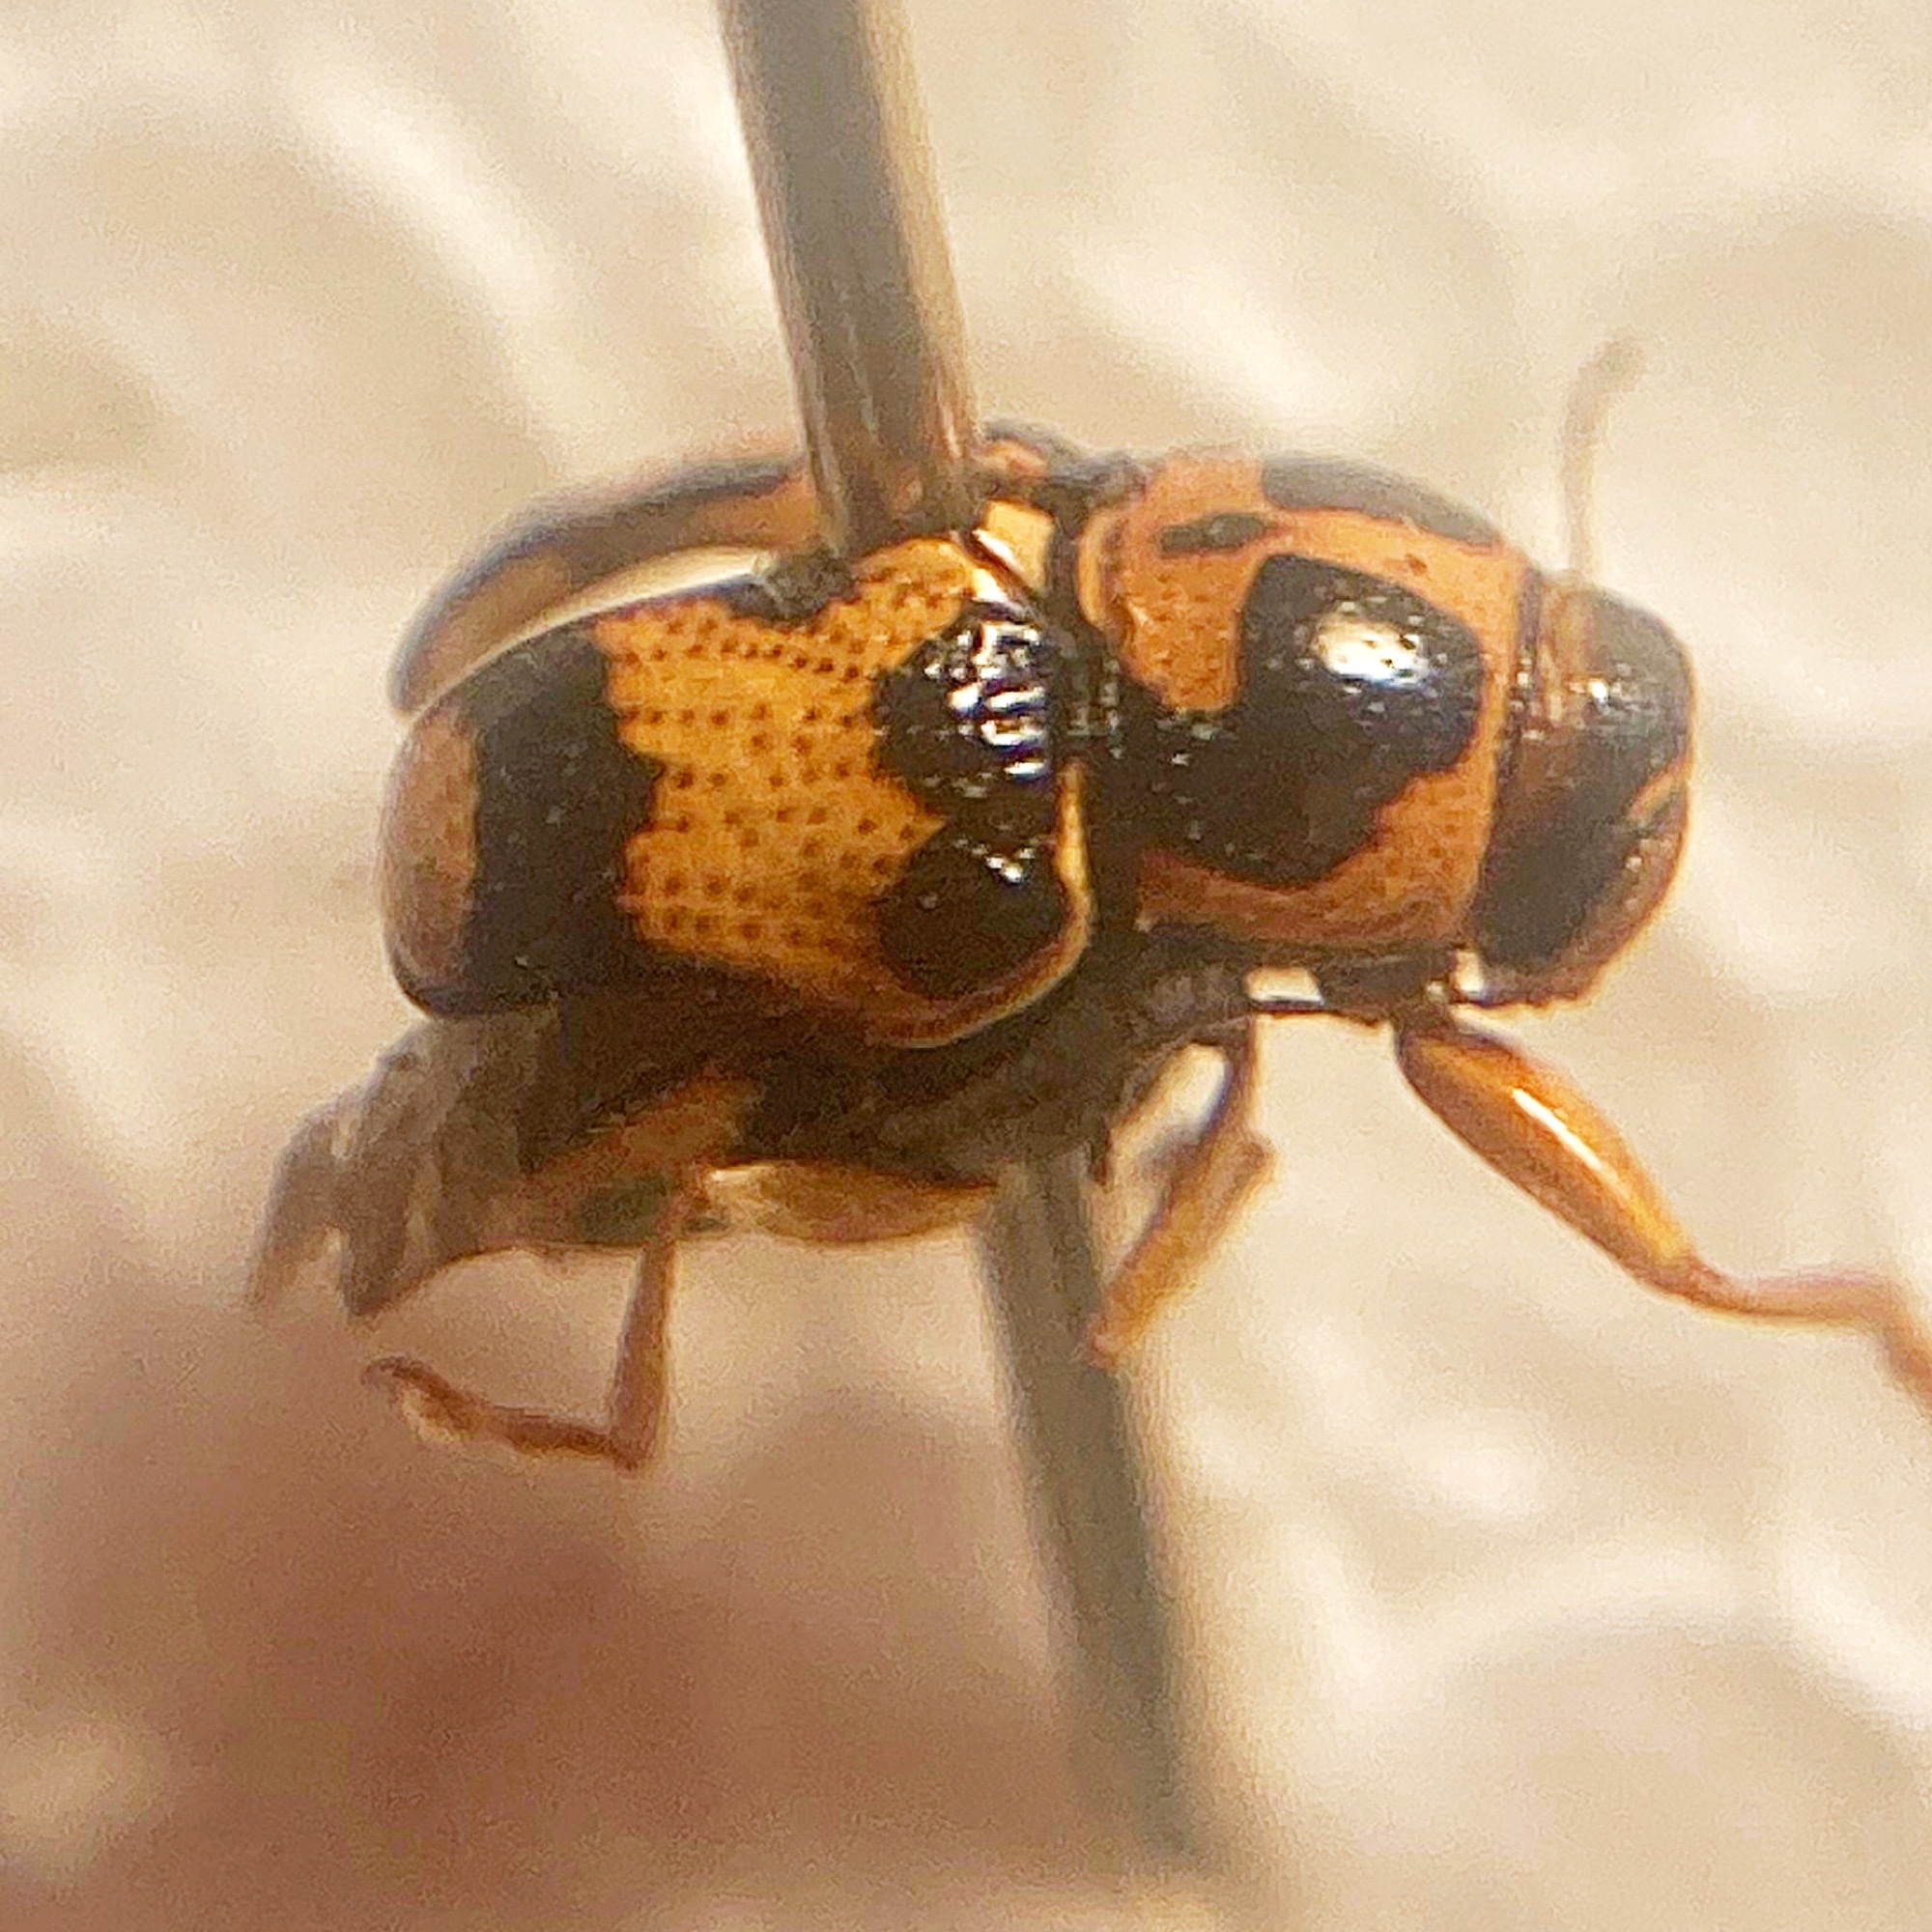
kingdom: Animalia
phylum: Arthropoda
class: Insecta
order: Coleoptera
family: Chrysomelidae
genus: Griburius
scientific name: Griburius scutellaris
